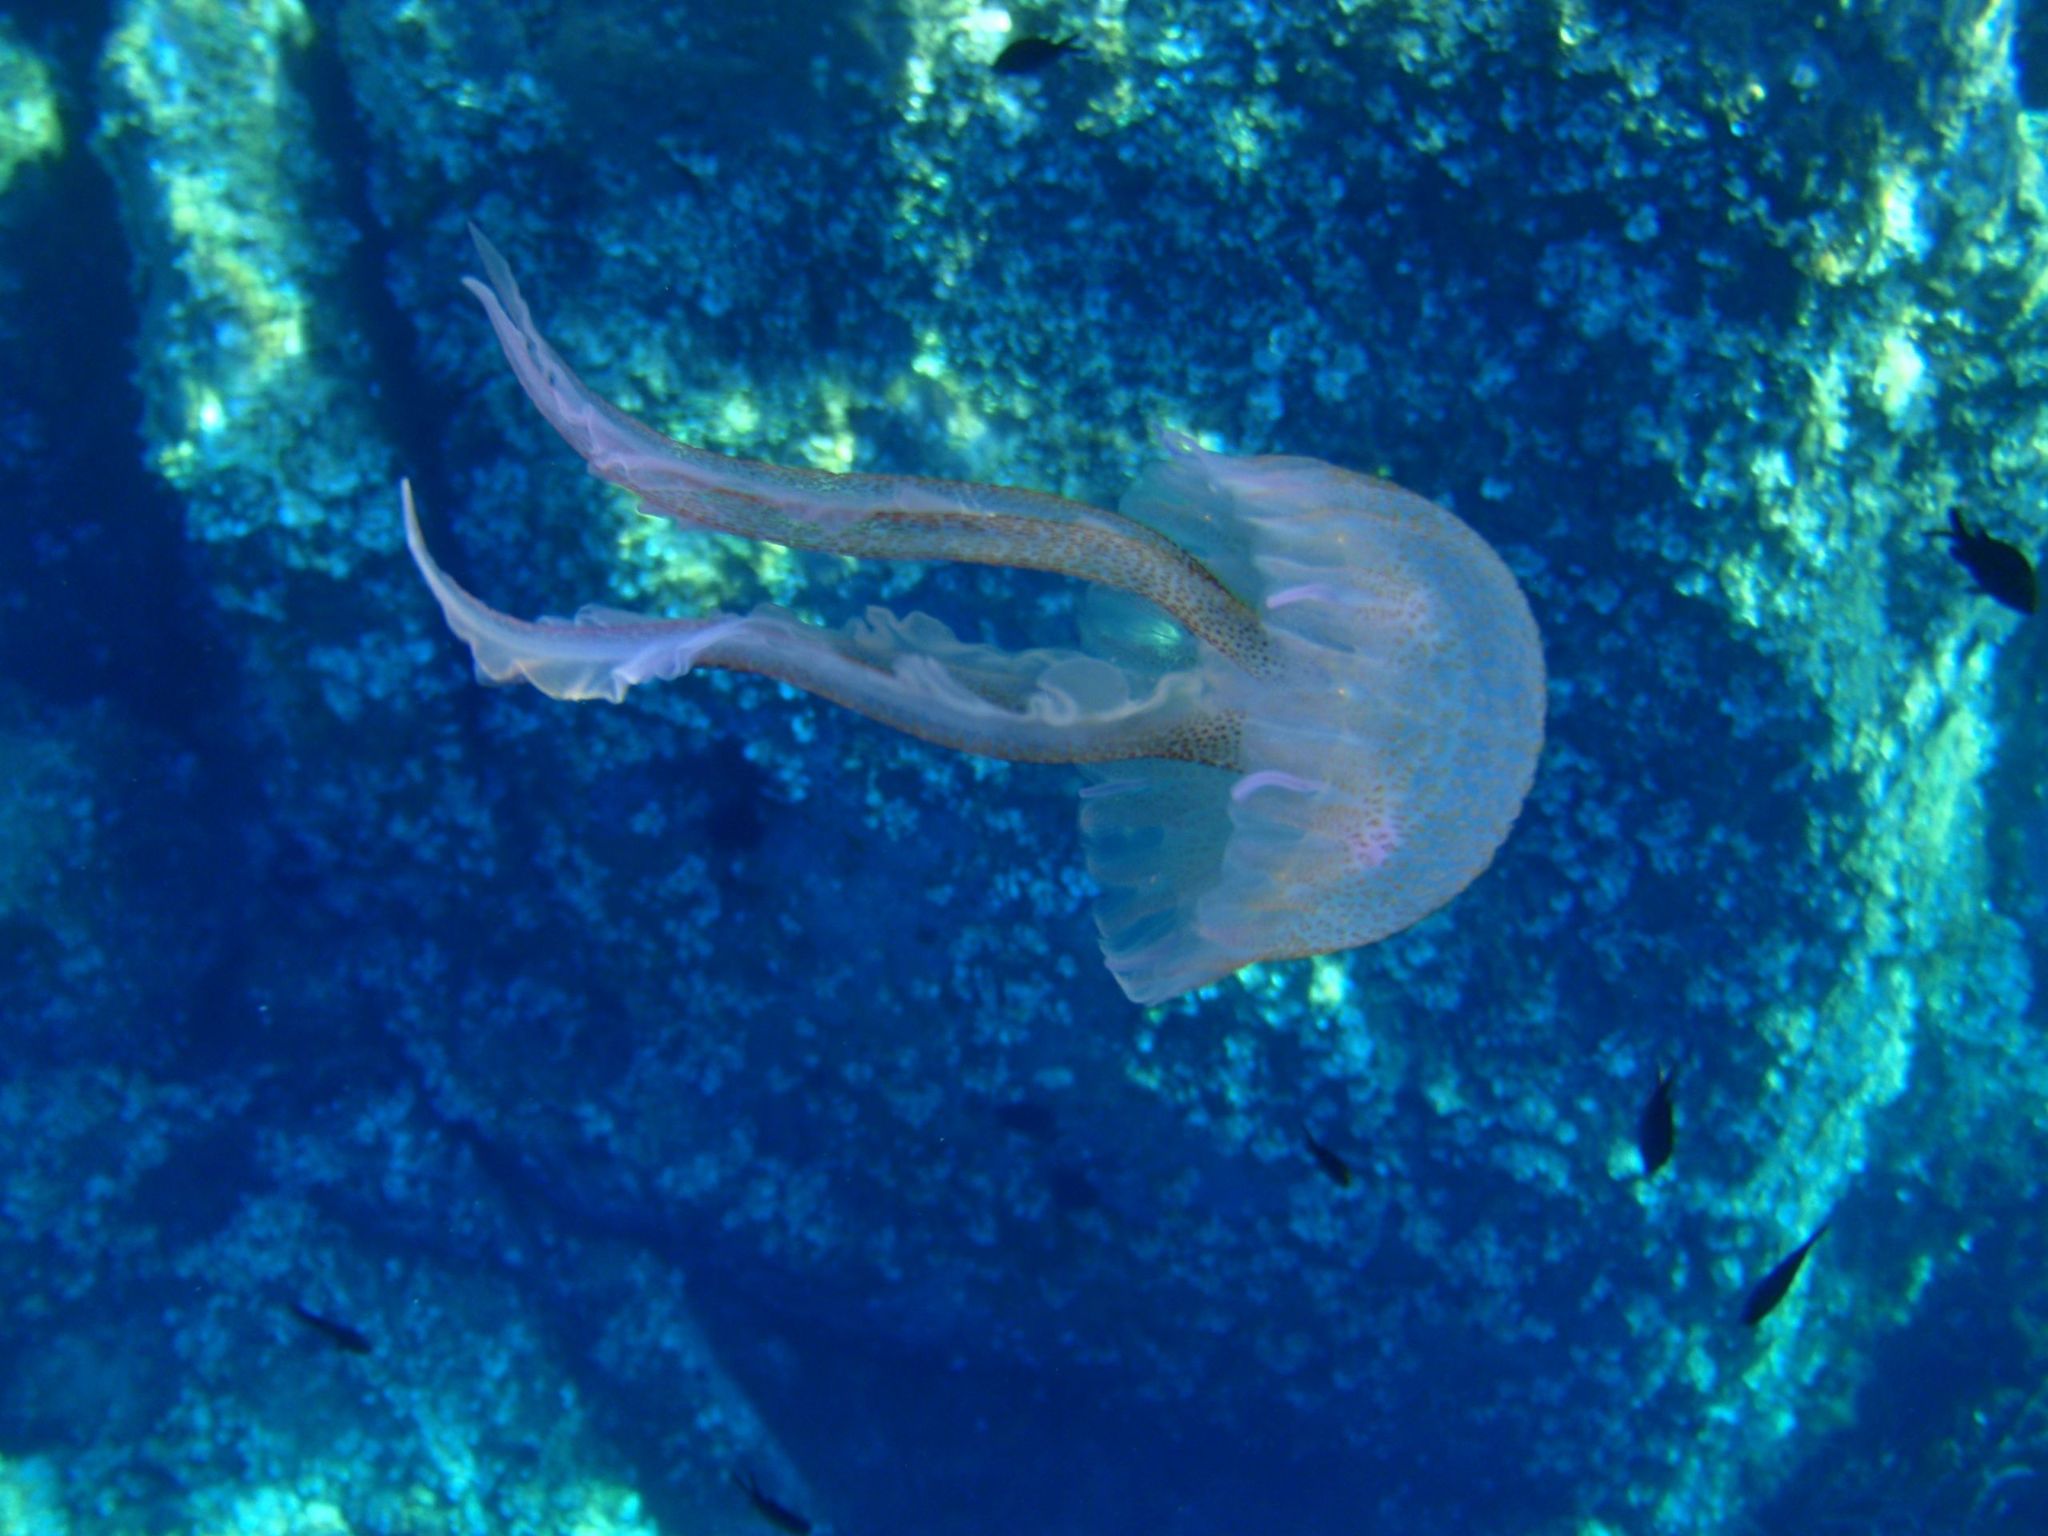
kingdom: Animalia
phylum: Cnidaria
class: Scyphozoa
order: Semaeostomeae
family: Pelagiidae
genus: Pelagia
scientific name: Pelagia noctiluca
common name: Mauve stinger
